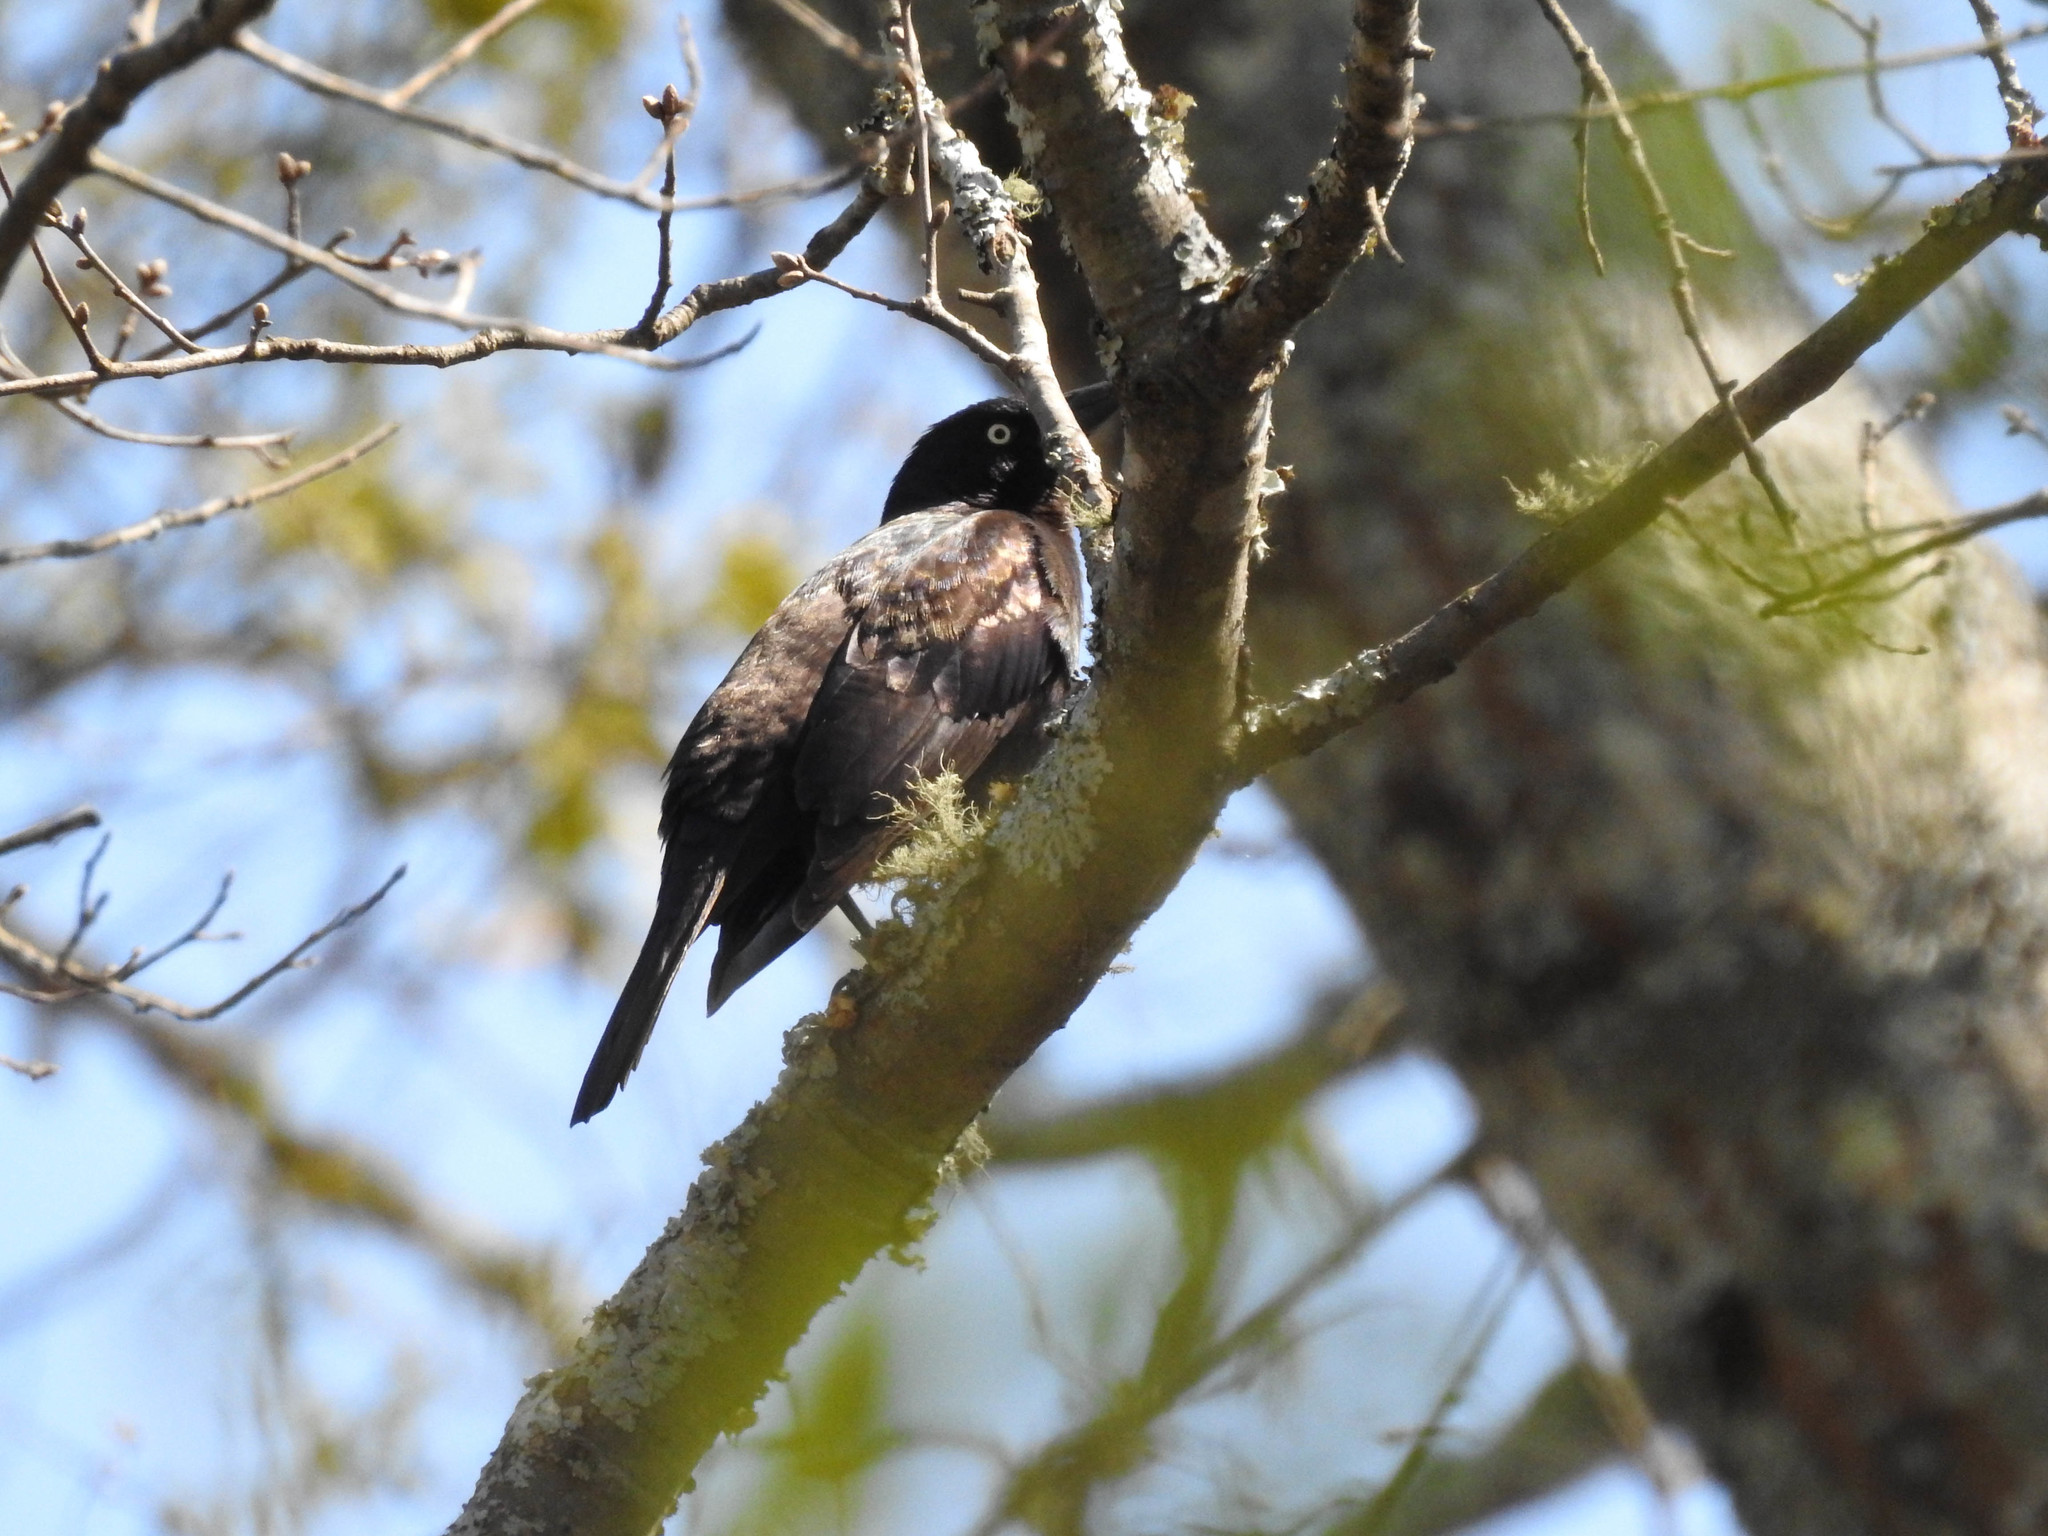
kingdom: Animalia
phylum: Chordata
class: Aves
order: Passeriformes
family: Icteridae
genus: Quiscalus
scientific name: Quiscalus quiscula
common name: Common grackle
